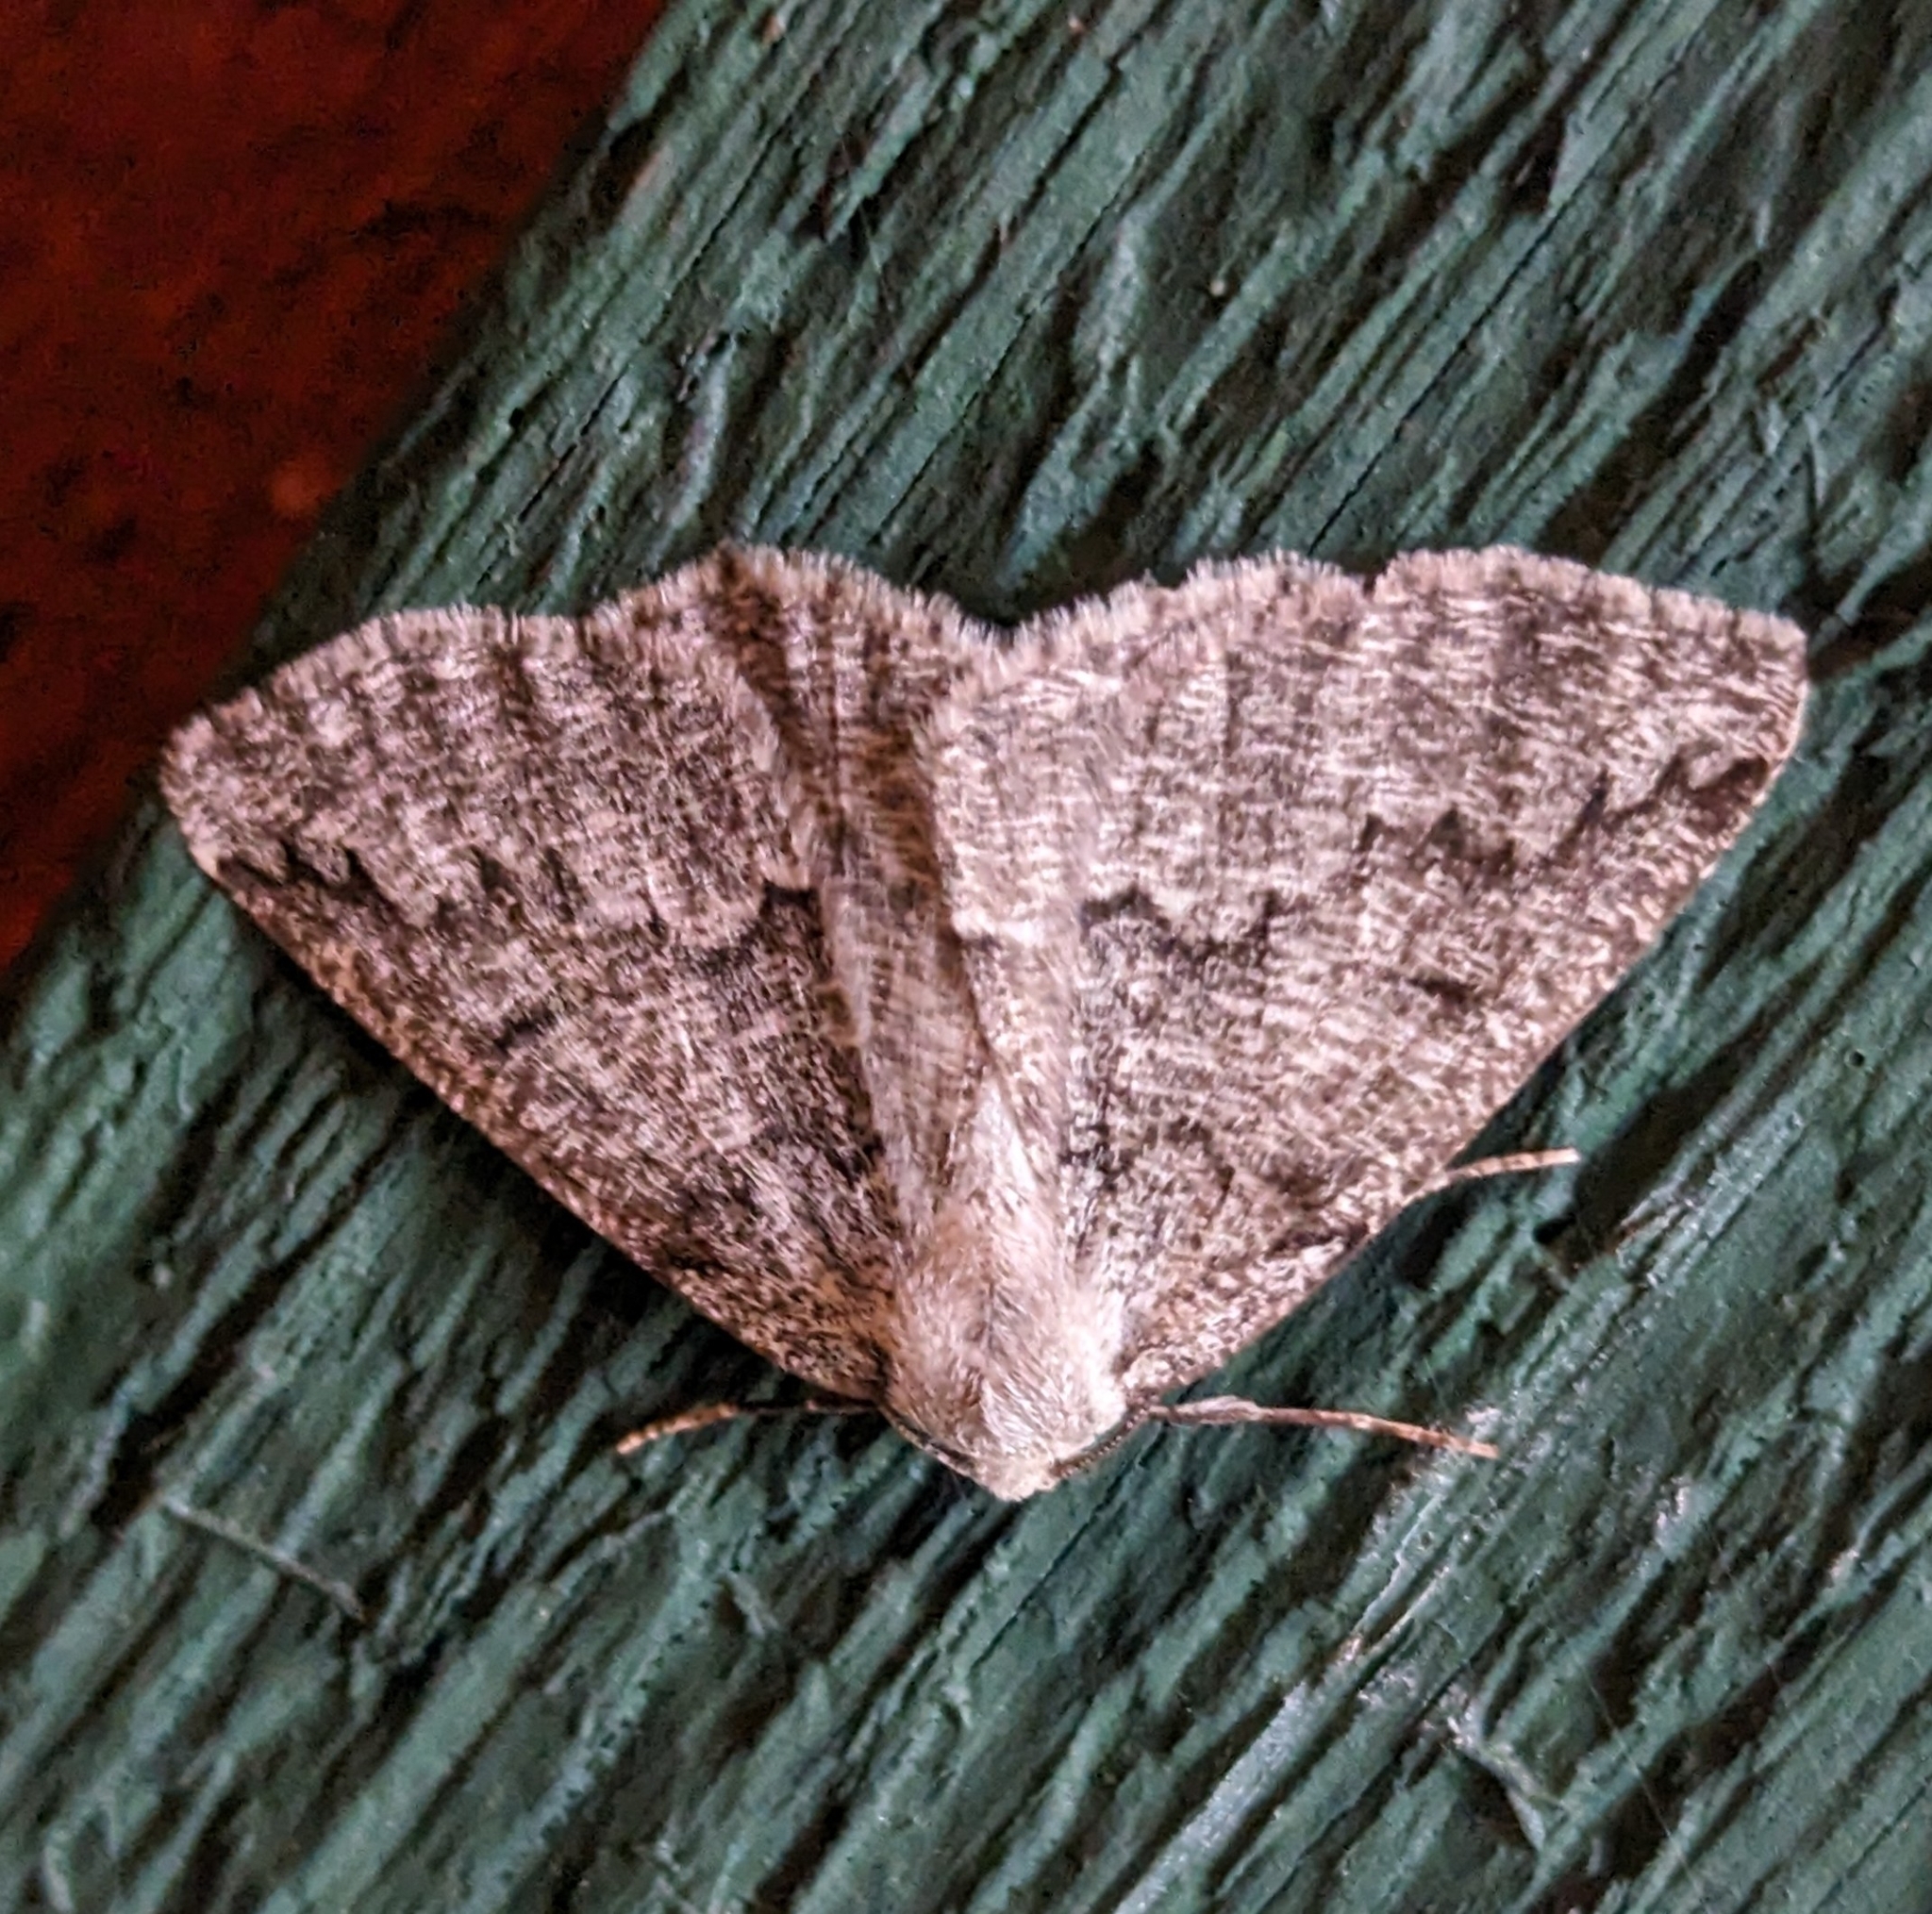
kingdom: Animalia
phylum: Arthropoda
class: Insecta
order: Lepidoptera
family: Geometridae
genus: Sabulodes
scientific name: Sabulodes
